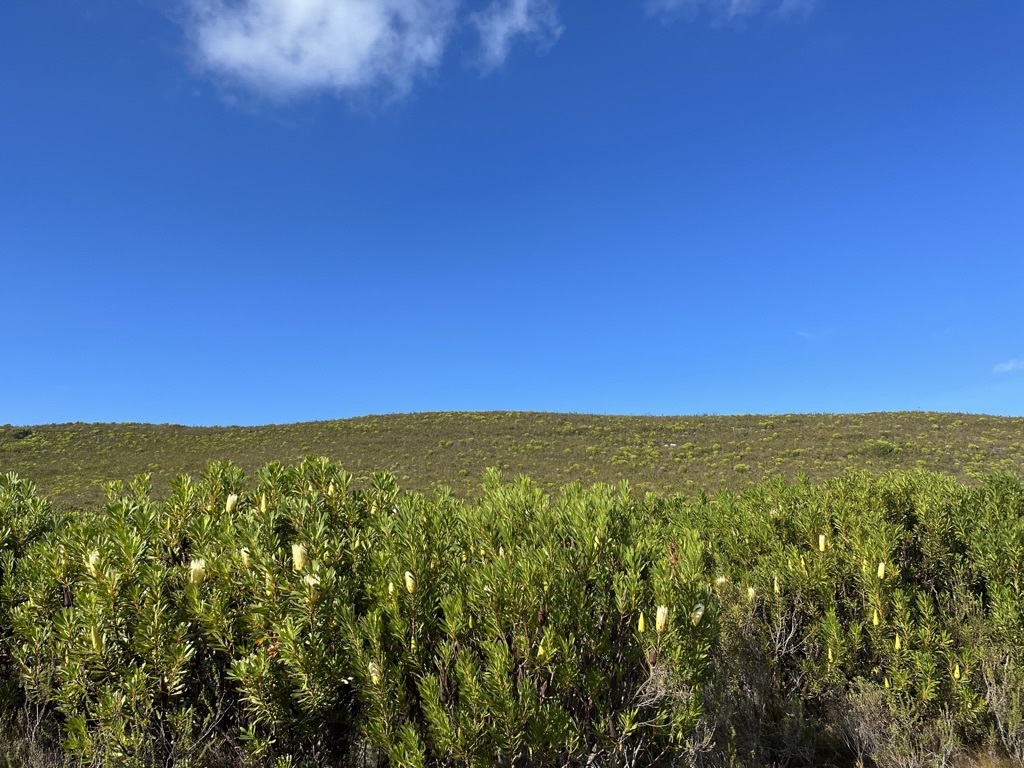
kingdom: Plantae
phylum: Tracheophyta
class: Magnoliopsida
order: Proteales
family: Proteaceae
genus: Protea
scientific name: Protea repens
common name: Sugarbush
